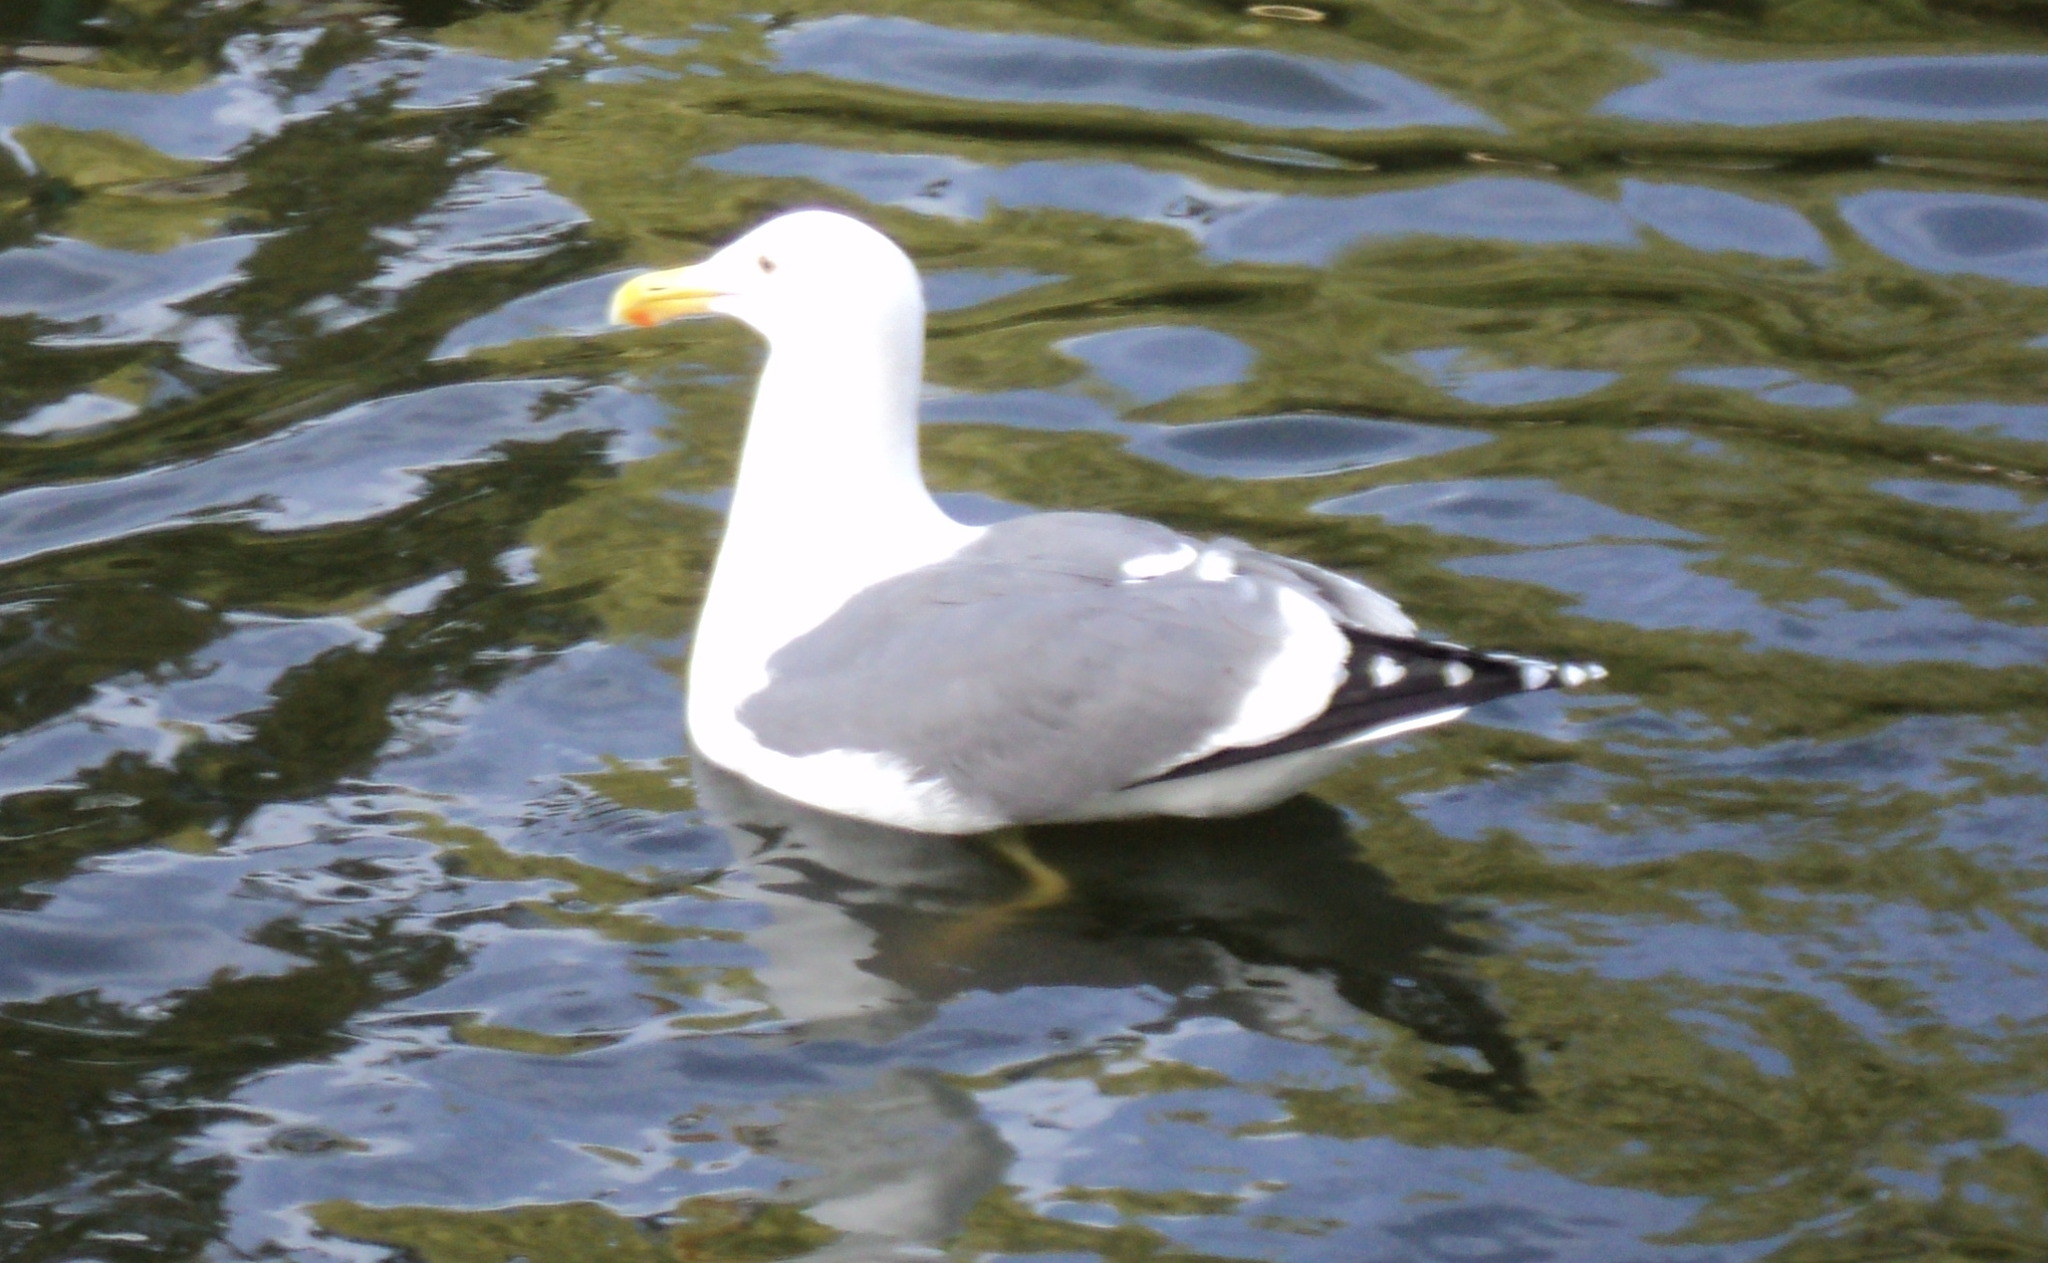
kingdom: Animalia
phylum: Chordata
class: Aves
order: Charadriiformes
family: Laridae
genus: Larus
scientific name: Larus occidentalis
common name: Western gull
